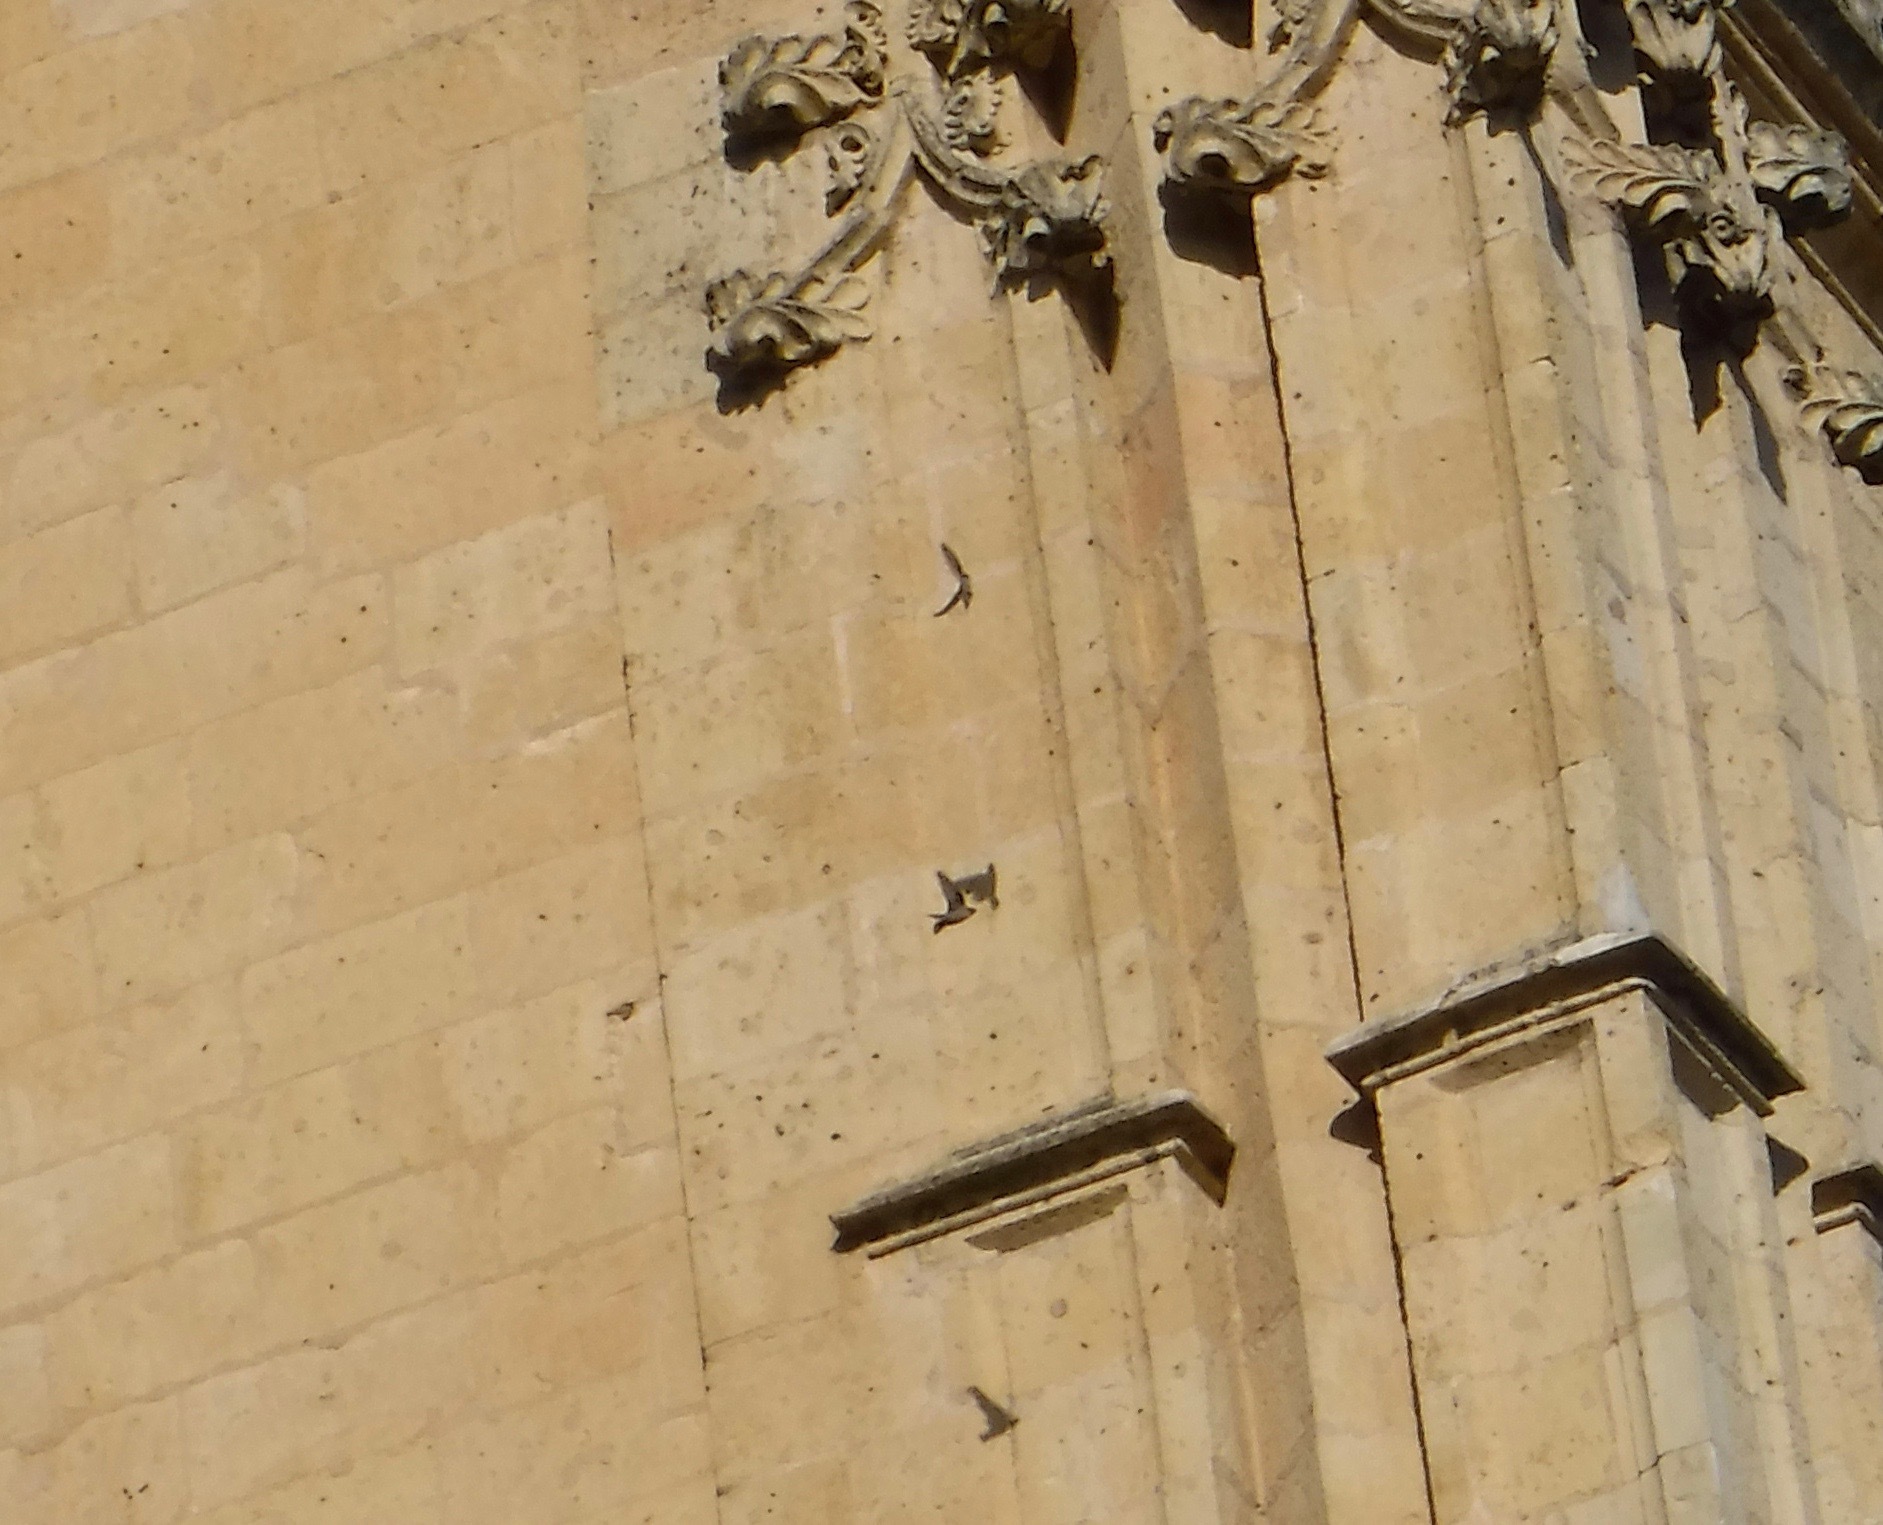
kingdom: Animalia
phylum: Chordata
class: Aves
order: Passeriformes
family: Hirundinidae
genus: Ptyonoprogne
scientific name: Ptyonoprogne rupestris
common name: Eurasian crag martin
